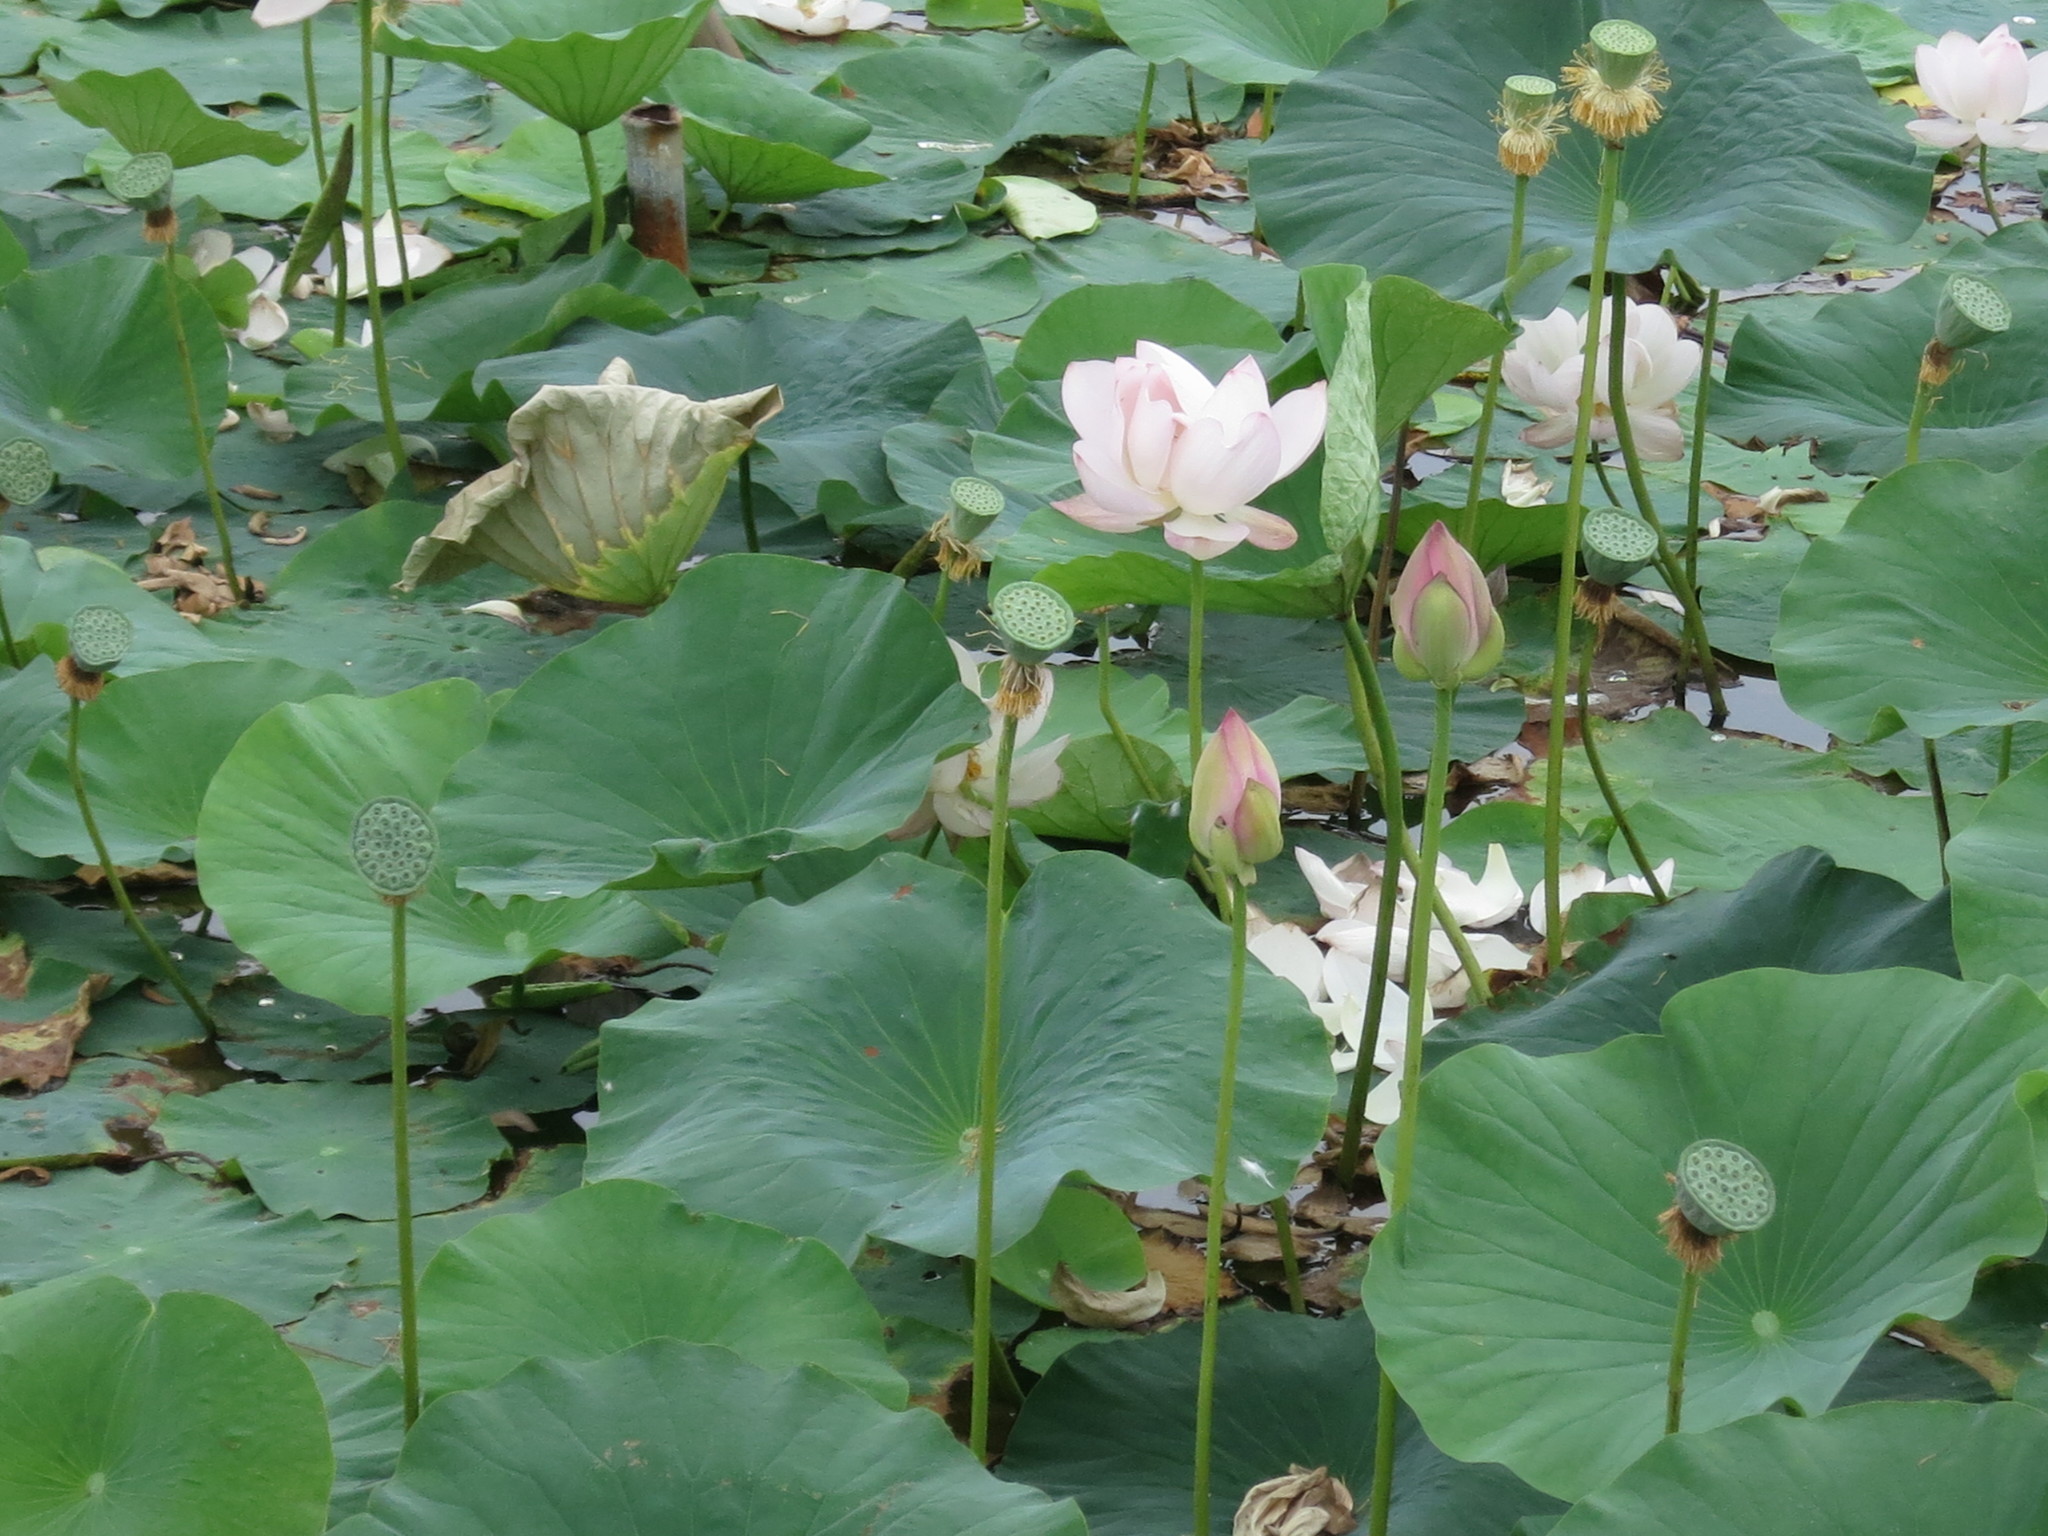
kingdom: Plantae
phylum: Tracheophyta
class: Magnoliopsida
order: Proteales
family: Nelumbonaceae
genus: Nelumbo
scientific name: Nelumbo nucifera
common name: Sacred lotus
